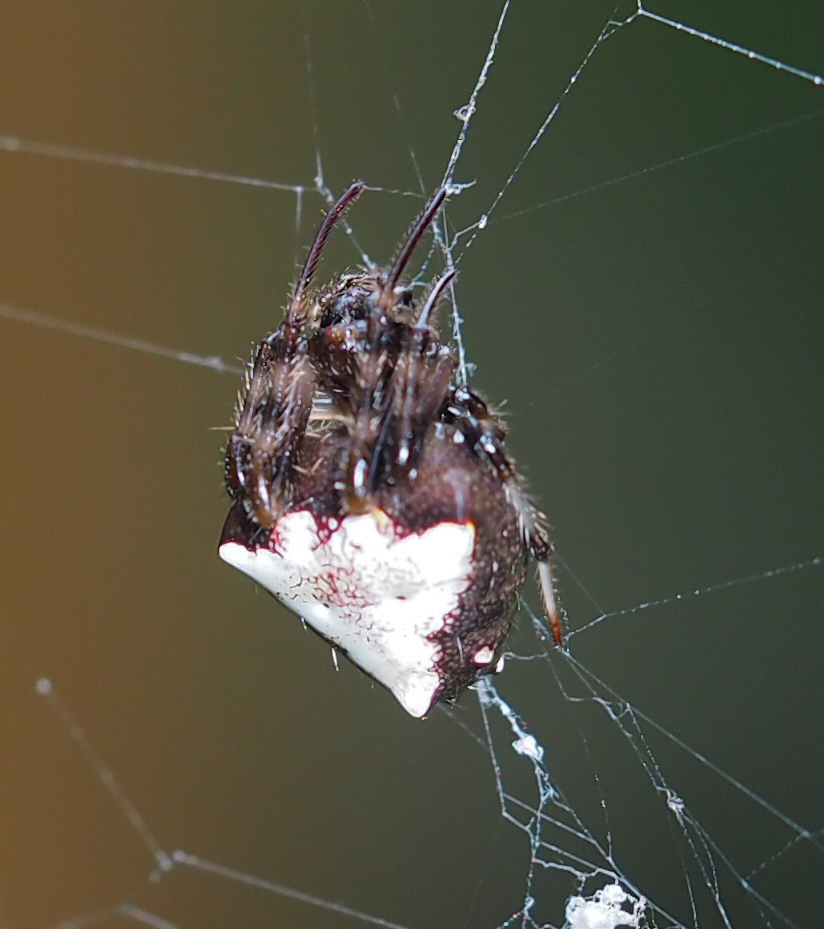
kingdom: Animalia
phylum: Arthropoda
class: Arachnida
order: Araneae
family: Araneidae
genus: Verrucosa
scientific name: Verrucosa arenata
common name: Orb weavers
